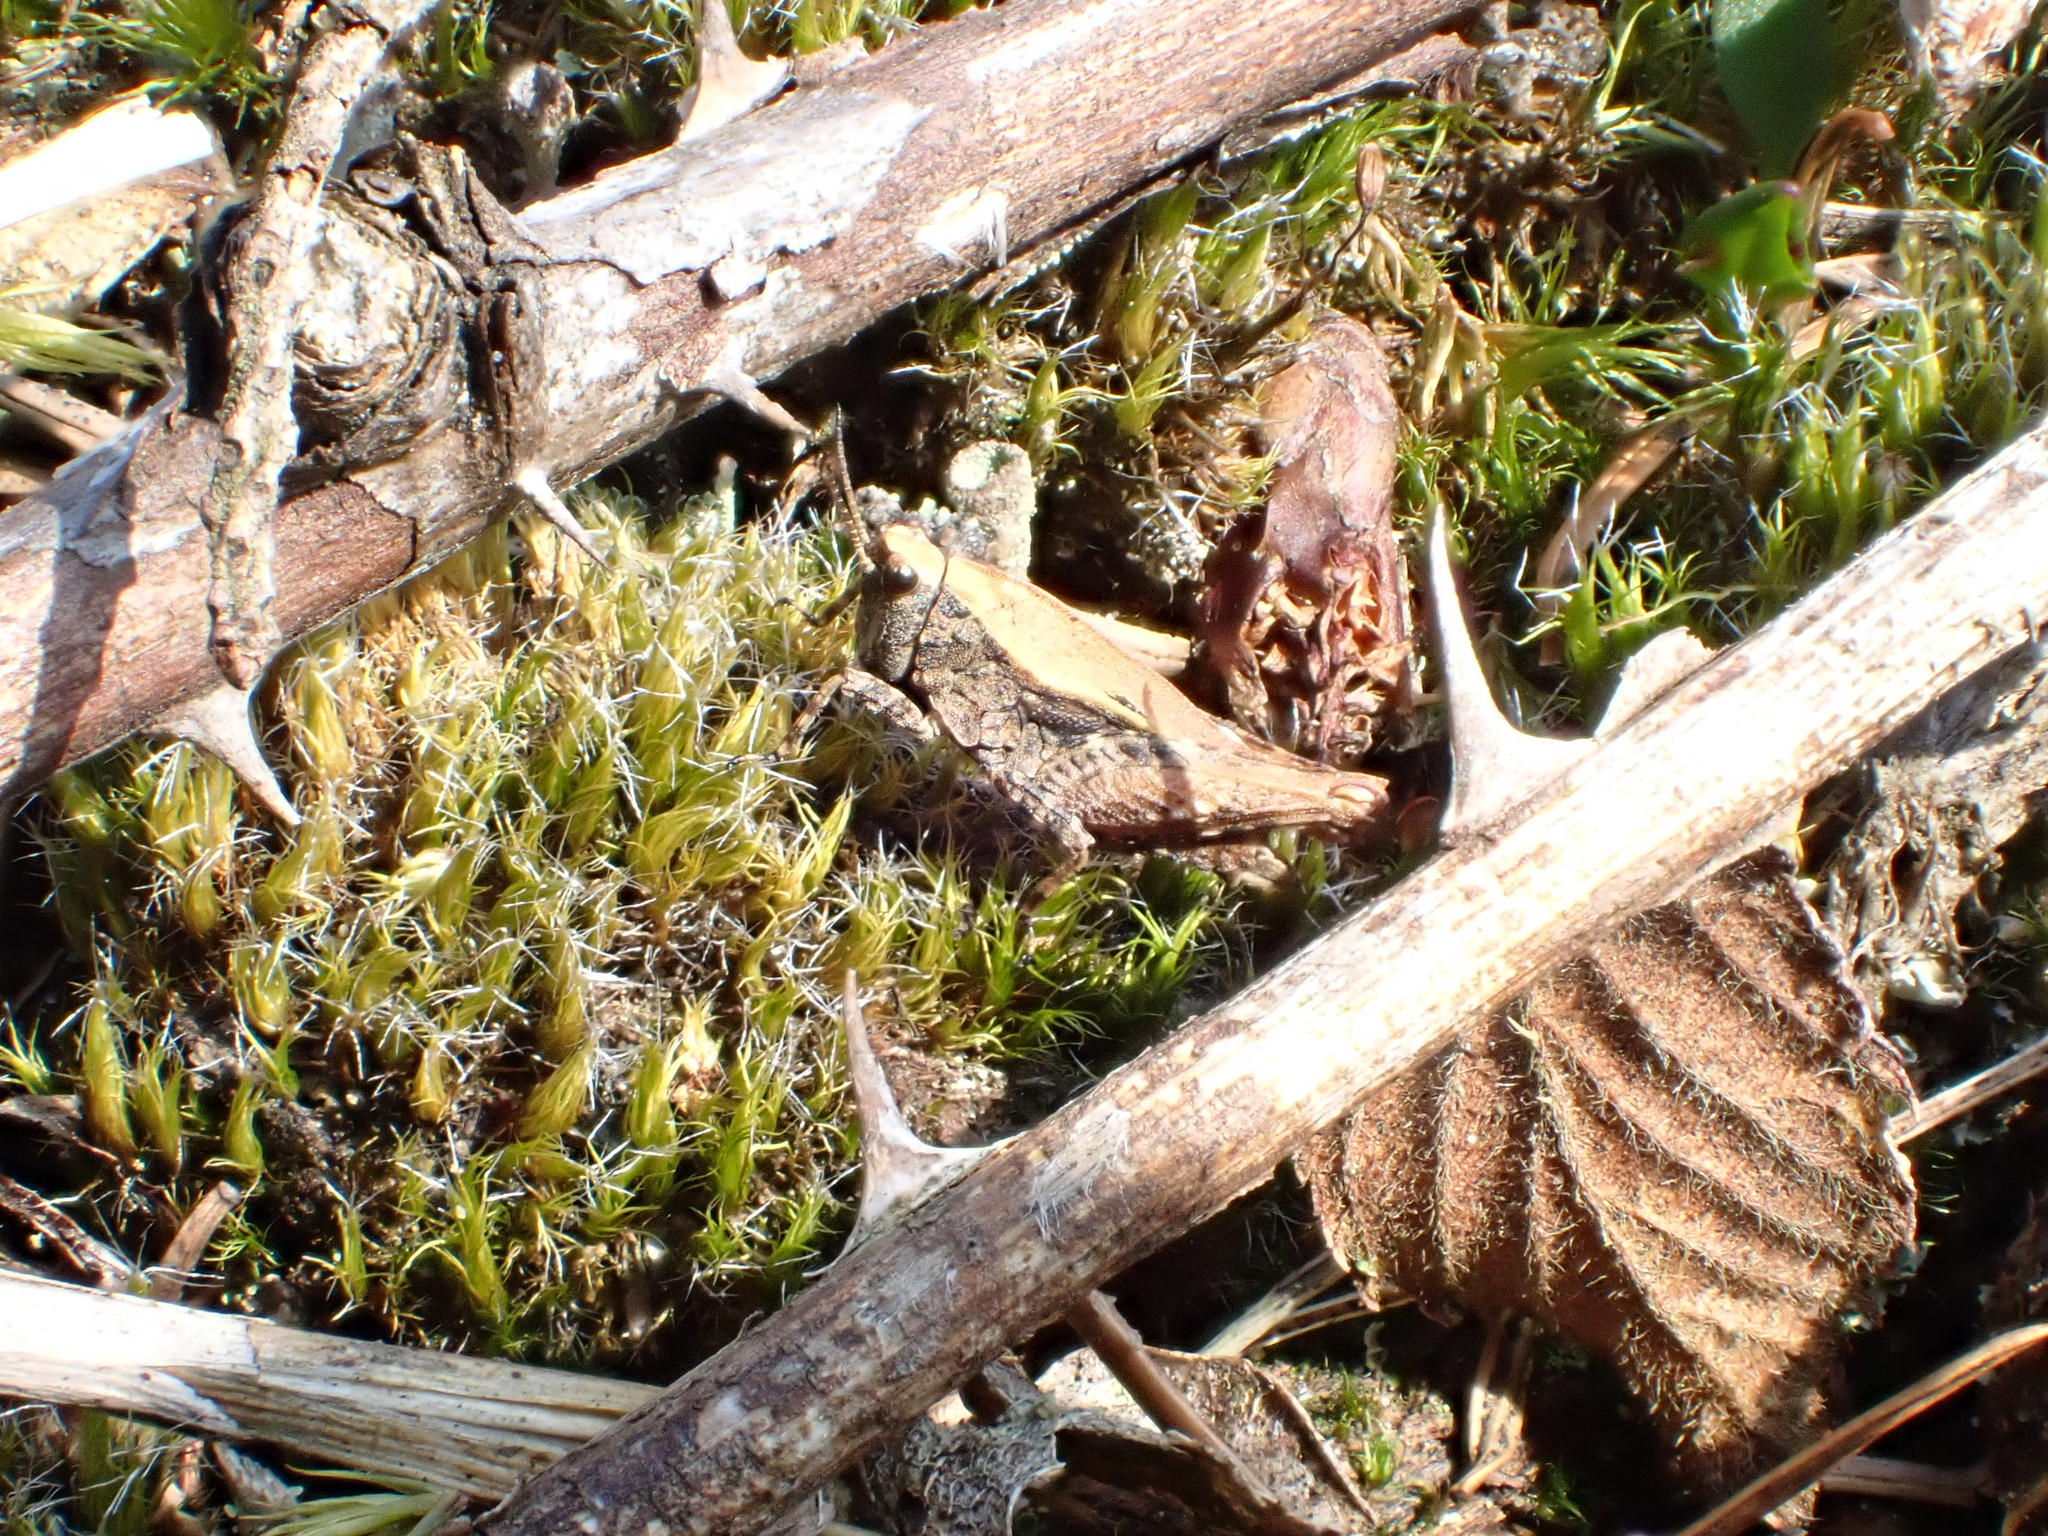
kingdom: Animalia
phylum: Arthropoda
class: Insecta
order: Orthoptera
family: Tetrigidae
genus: Tetrix
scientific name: Tetrix undulata
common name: Common groundhopper
